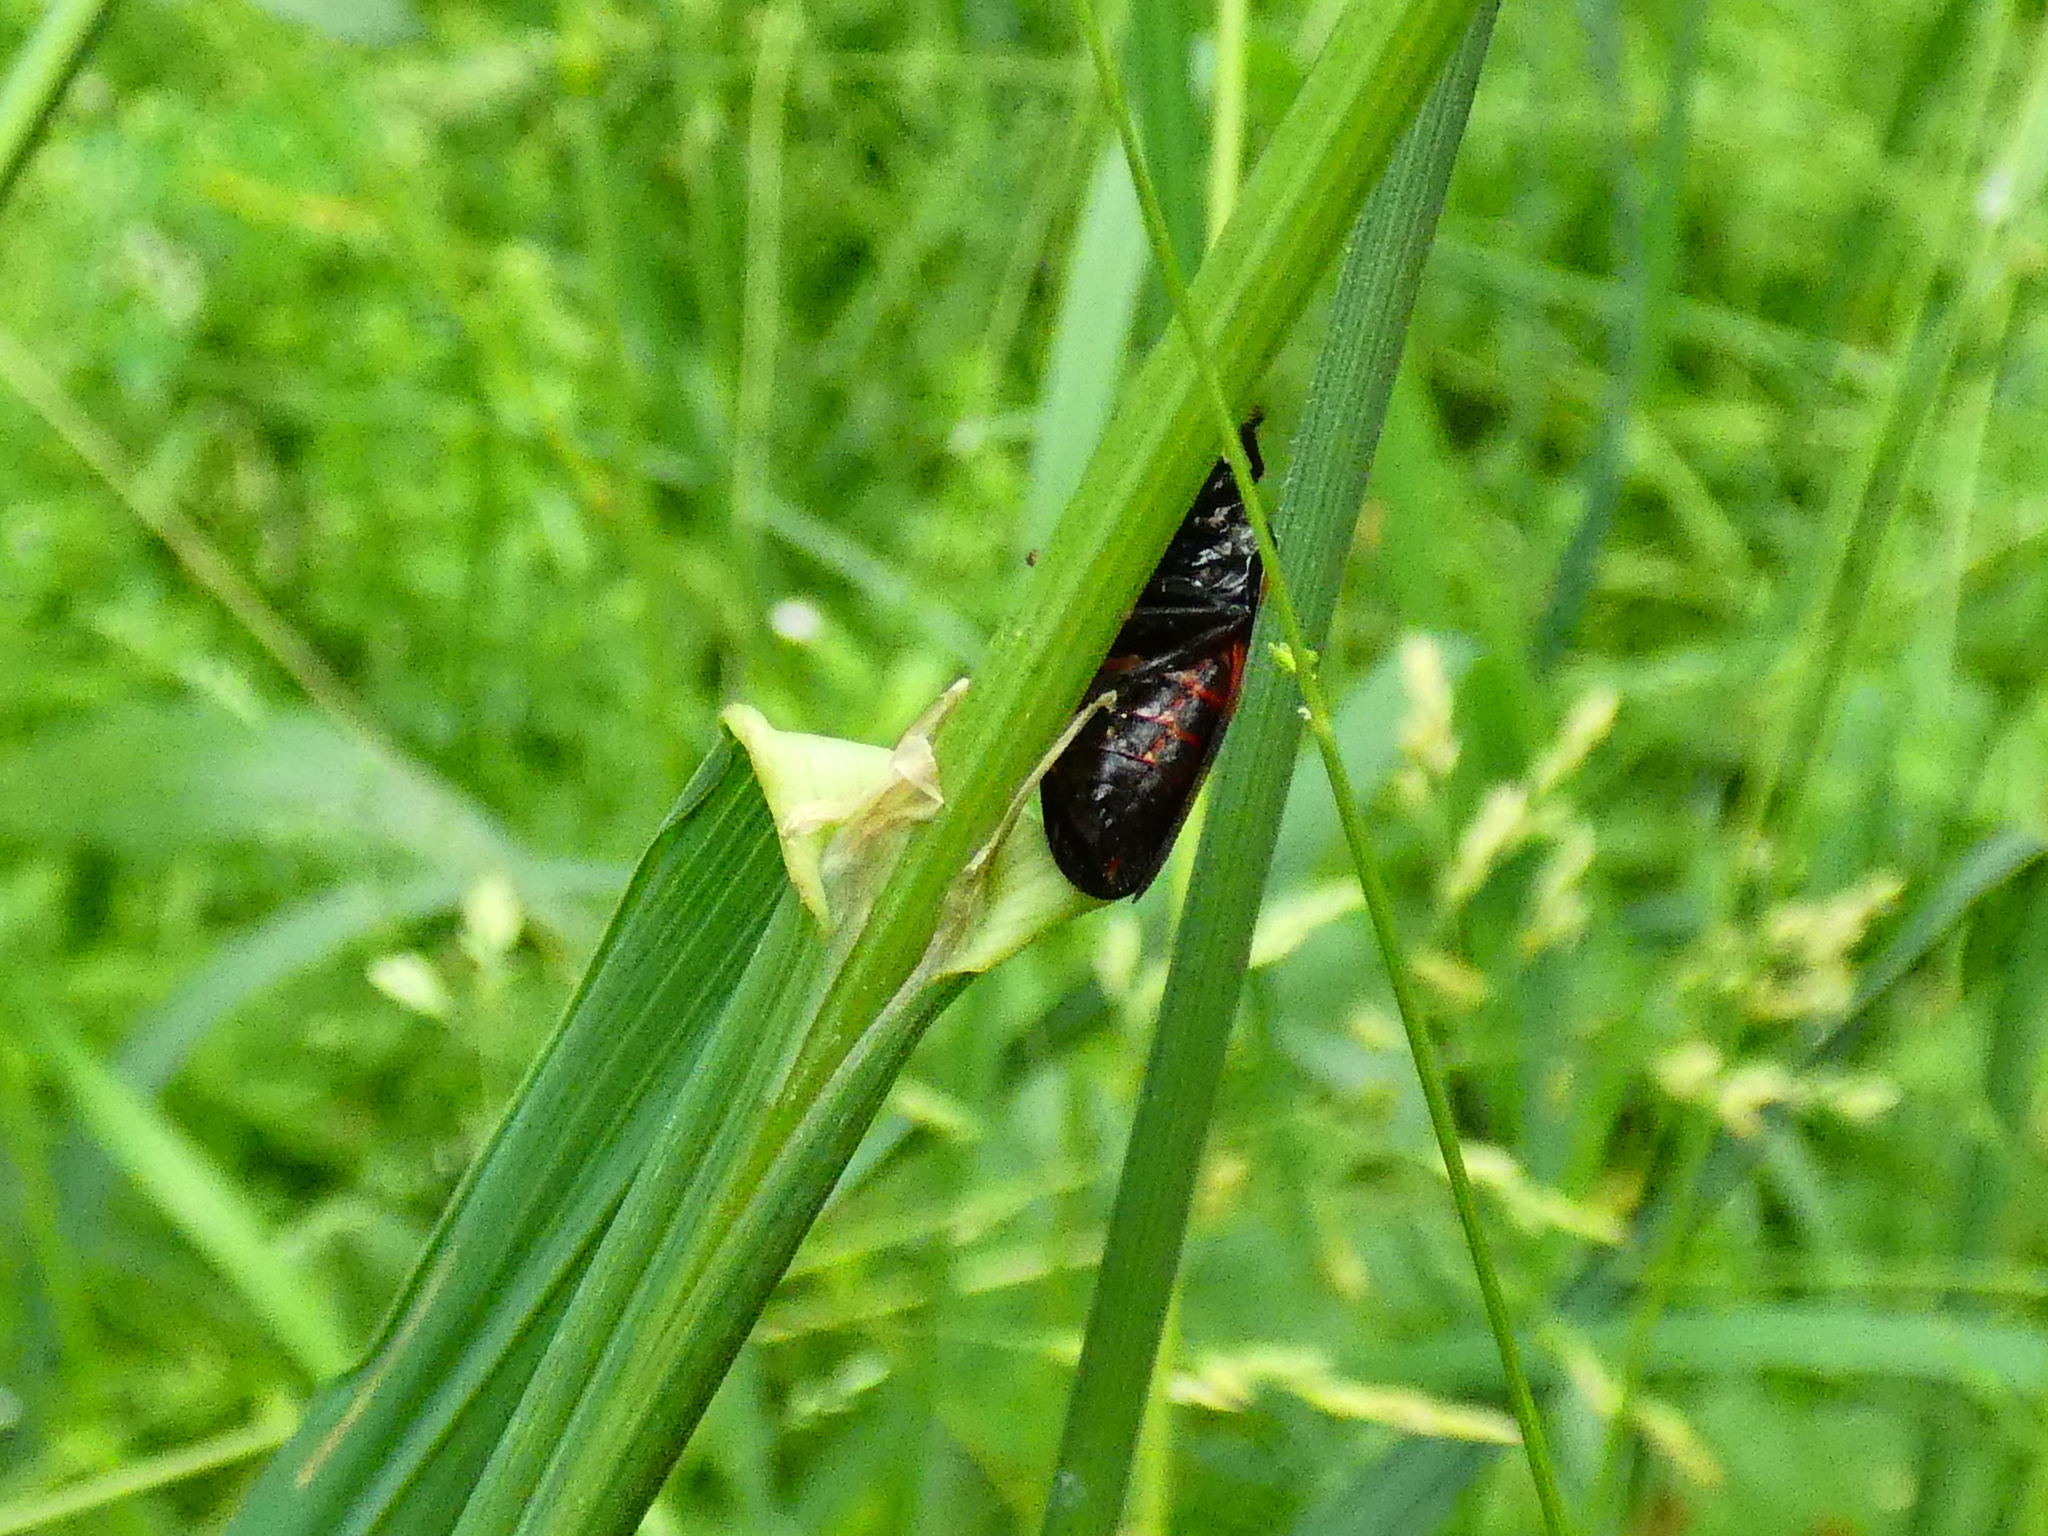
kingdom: Animalia
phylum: Arthropoda
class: Insecta
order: Hemiptera
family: Cercopidae
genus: Cercopis
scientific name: Cercopis vulnerata
